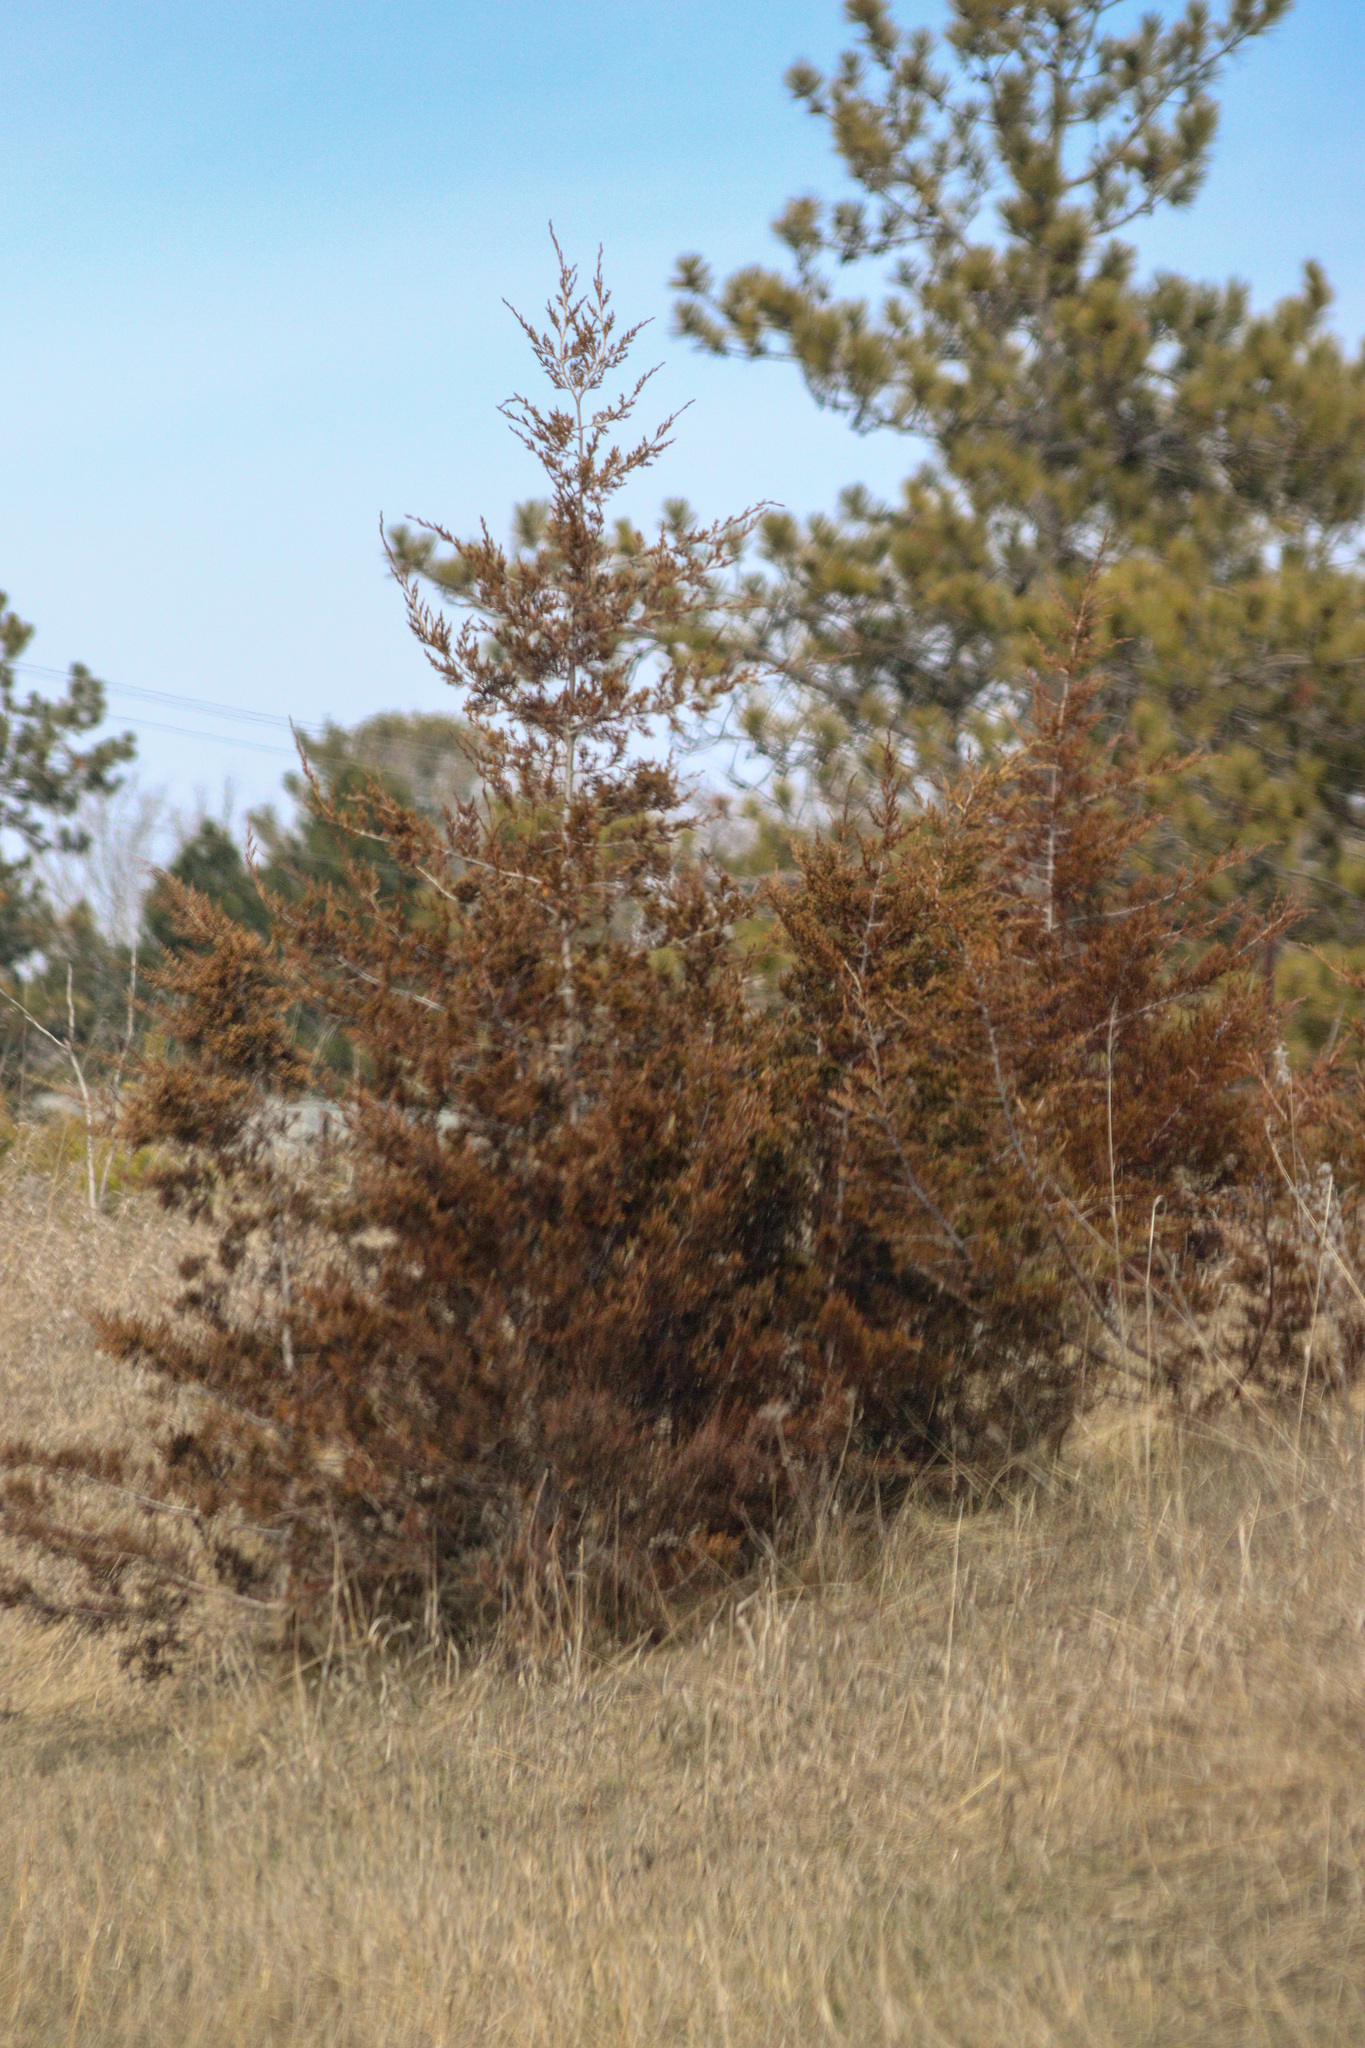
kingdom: Plantae
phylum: Tracheophyta
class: Pinopsida
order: Pinales
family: Cupressaceae
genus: Juniperus
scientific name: Juniperus virginiana
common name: Red juniper
